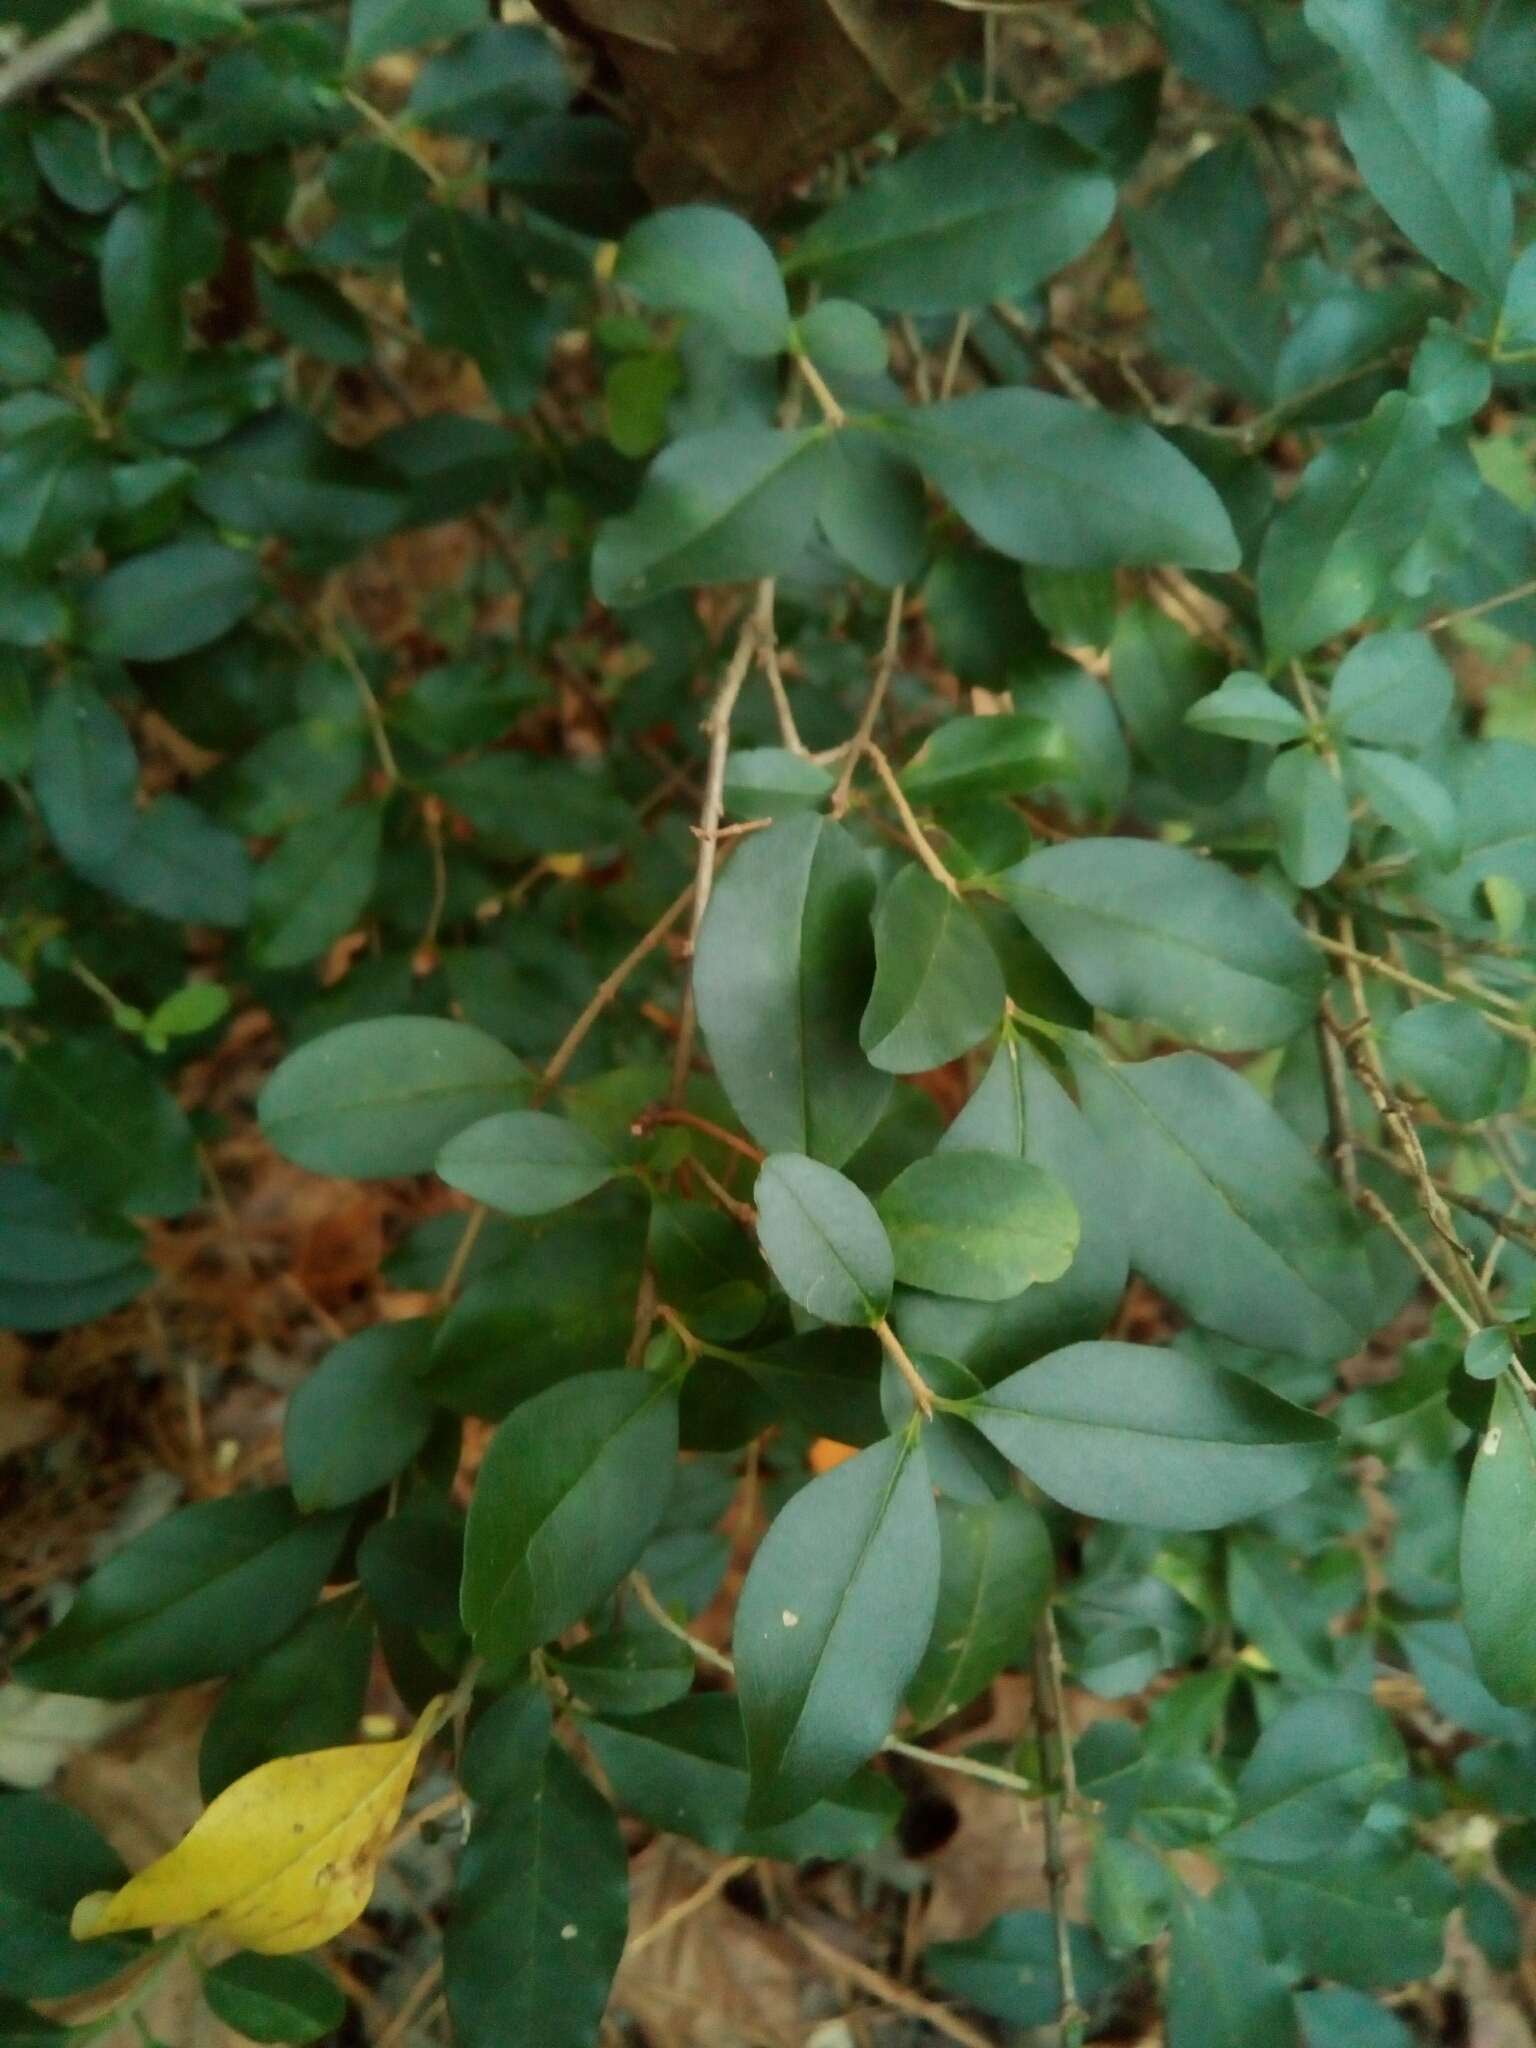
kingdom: Plantae
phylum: Tracheophyta
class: Magnoliopsida
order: Lamiales
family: Oleaceae
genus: Ligustrum
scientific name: Ligustrum sinense
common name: Chinese privet
